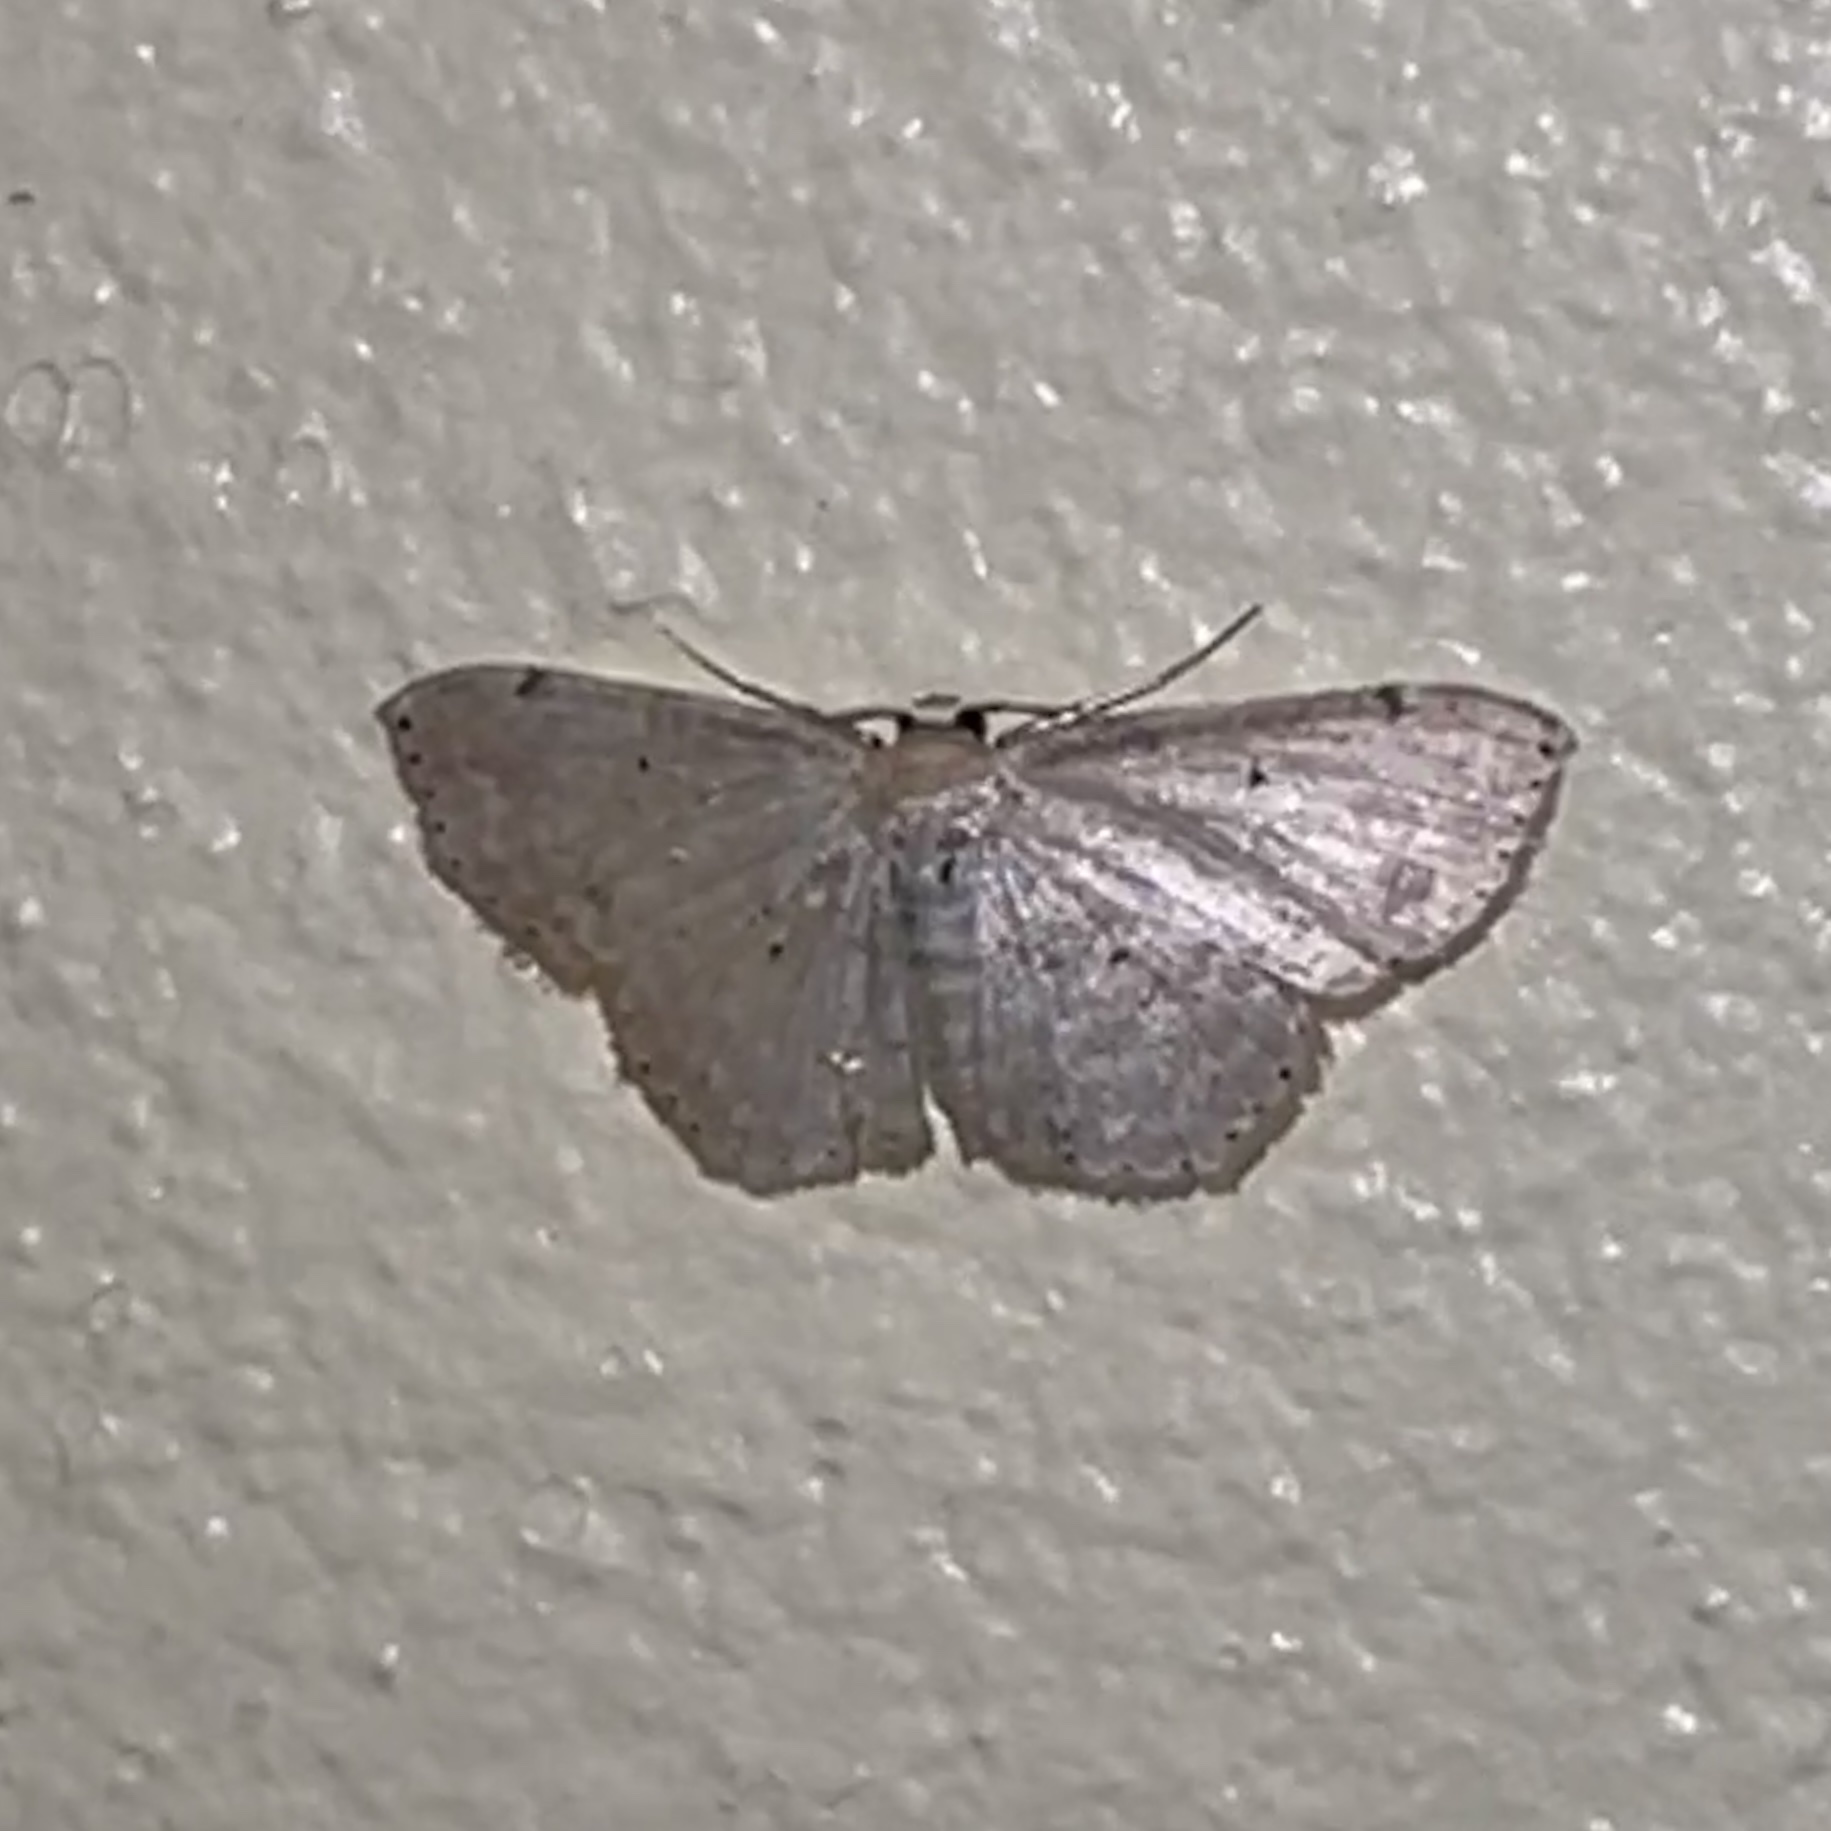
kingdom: Animalia
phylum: Arthropoda
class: Insecta
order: Lepidoptera
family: Geometridae
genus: Scopula
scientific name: Scopula apparitaria
